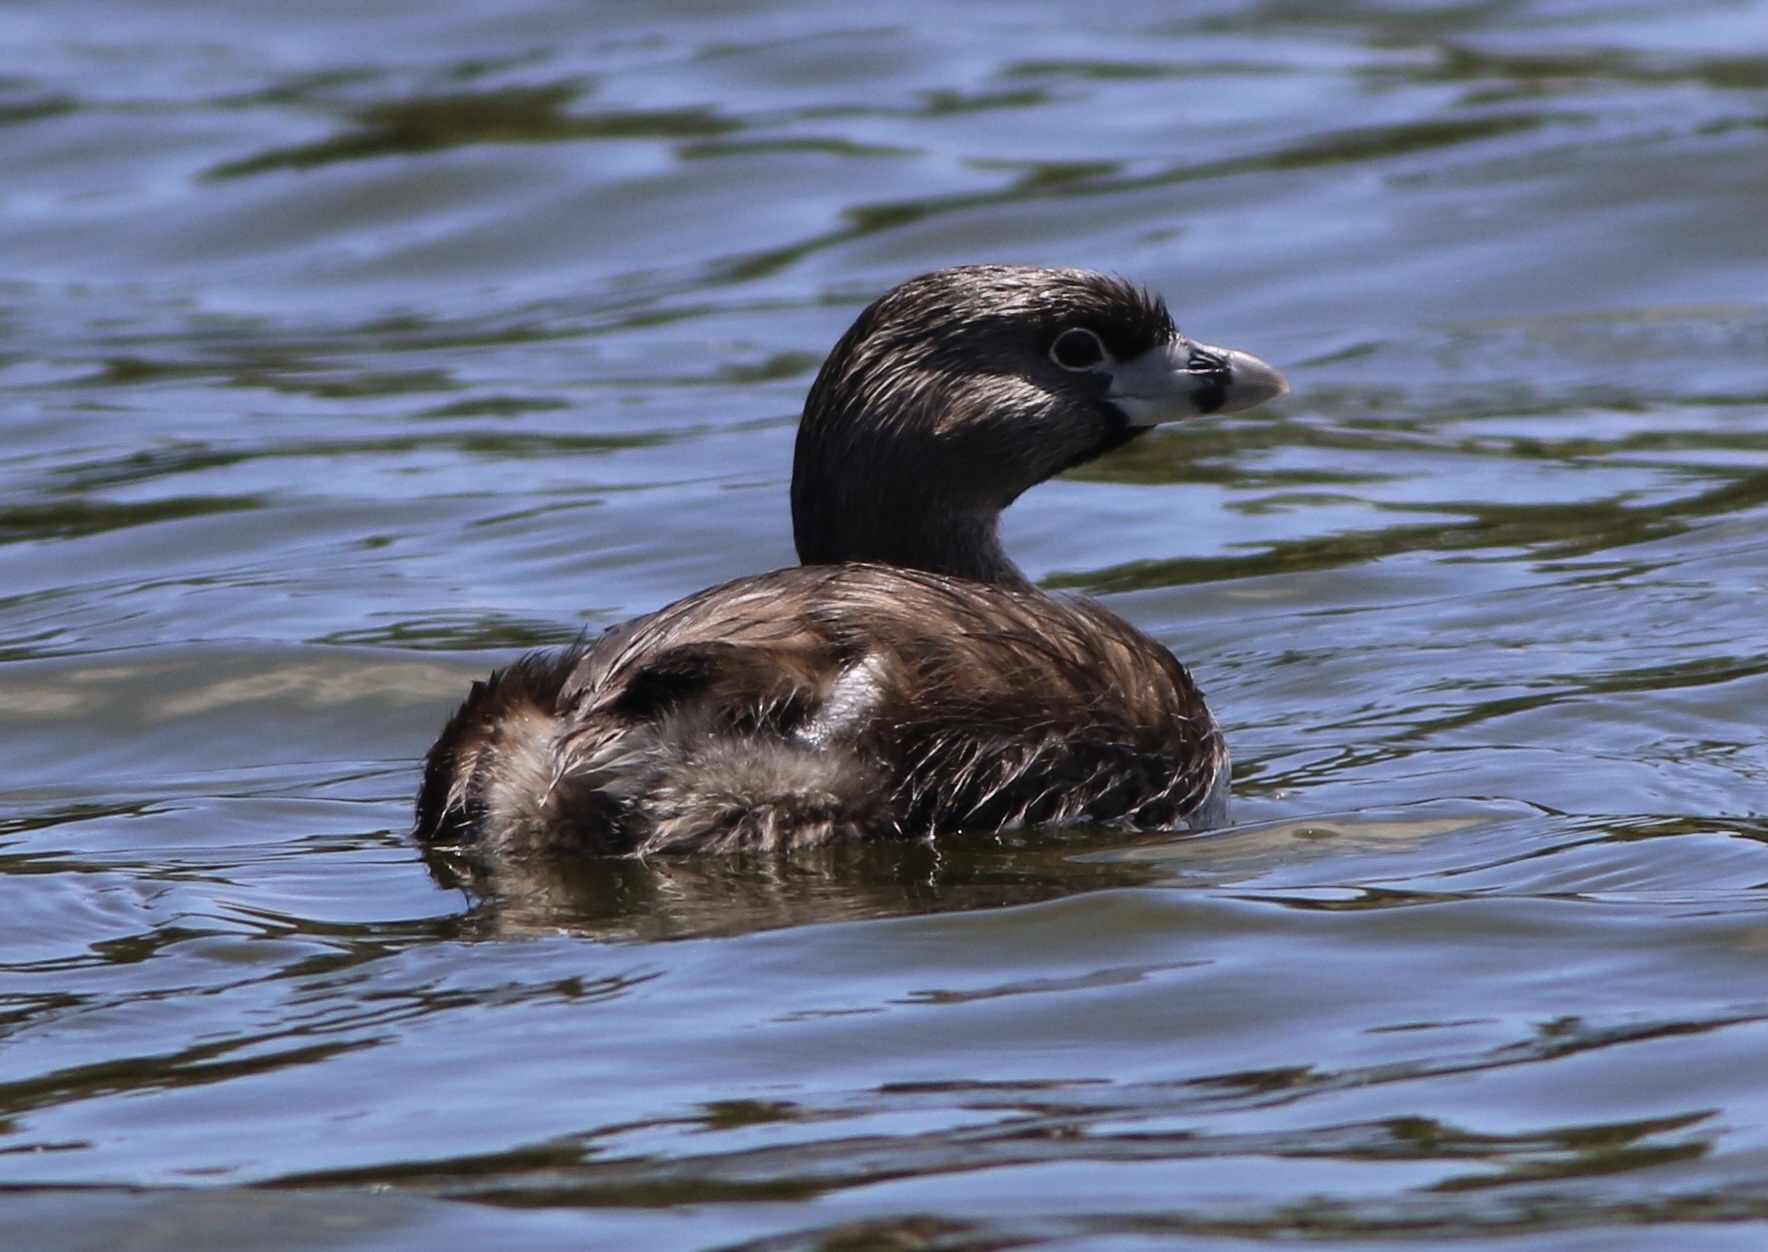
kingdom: Animalia
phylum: Chordata
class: Aves
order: Podicipediformes
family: Podicipedidae
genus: Podilymbus
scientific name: Podilymbus podiceps
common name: Pied-billed grebe
